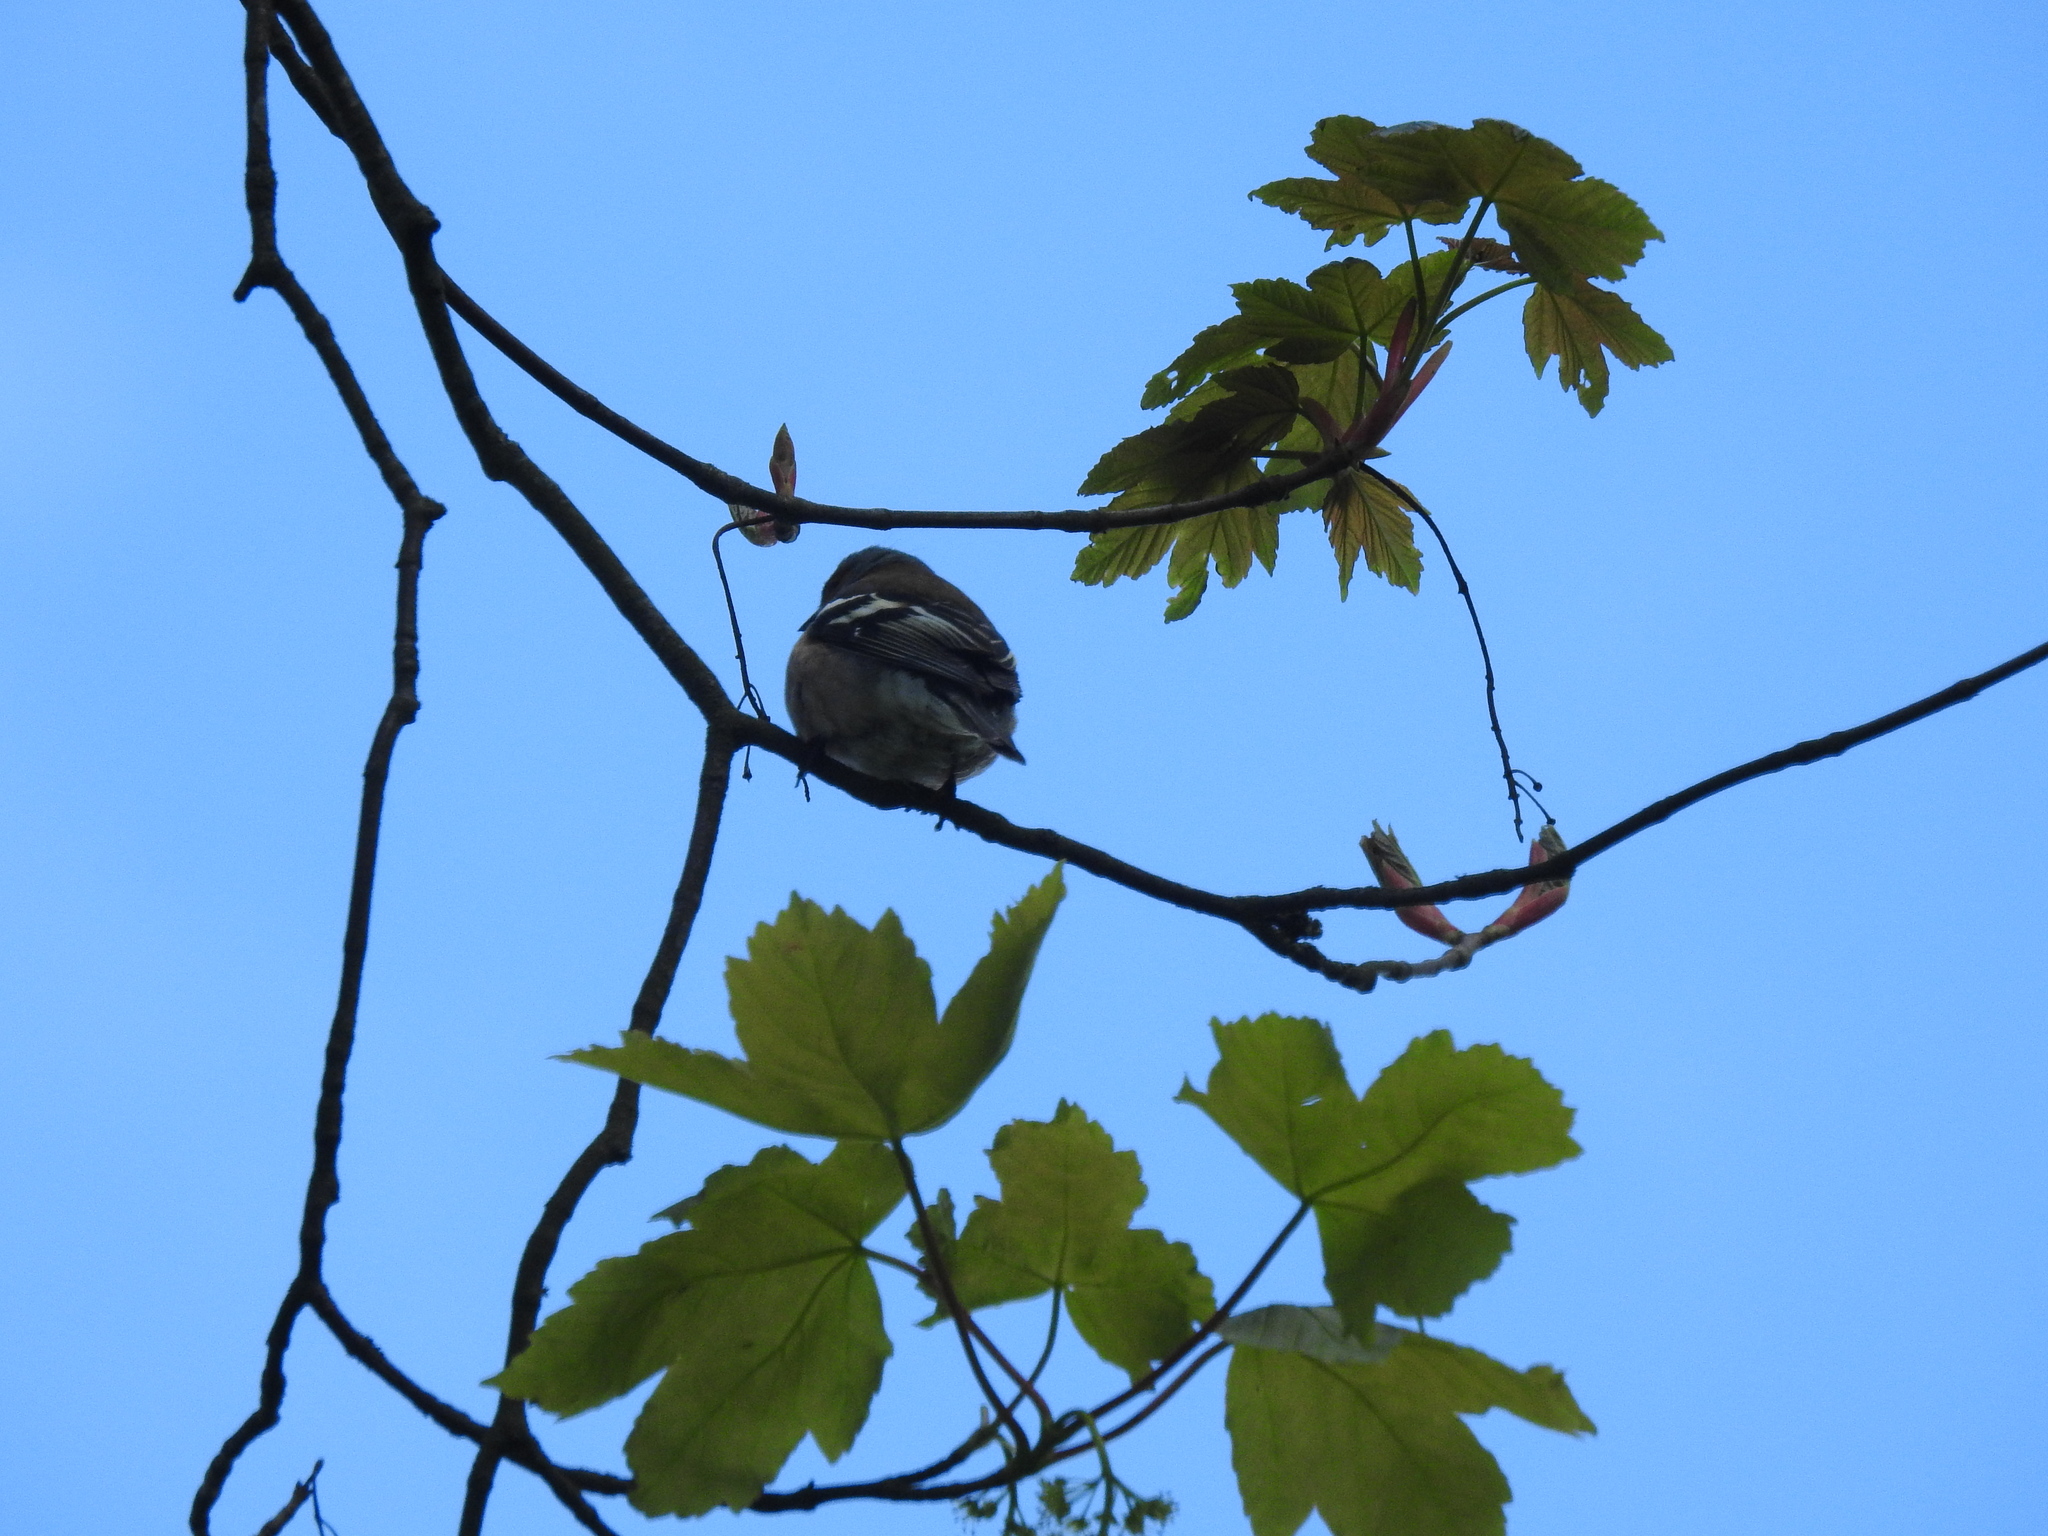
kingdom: Animalia
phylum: Chordata
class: Aves
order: Passeriformes
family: Fringillidae
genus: Fringilla
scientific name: Fringilla coelebs
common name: Common chaffinch
